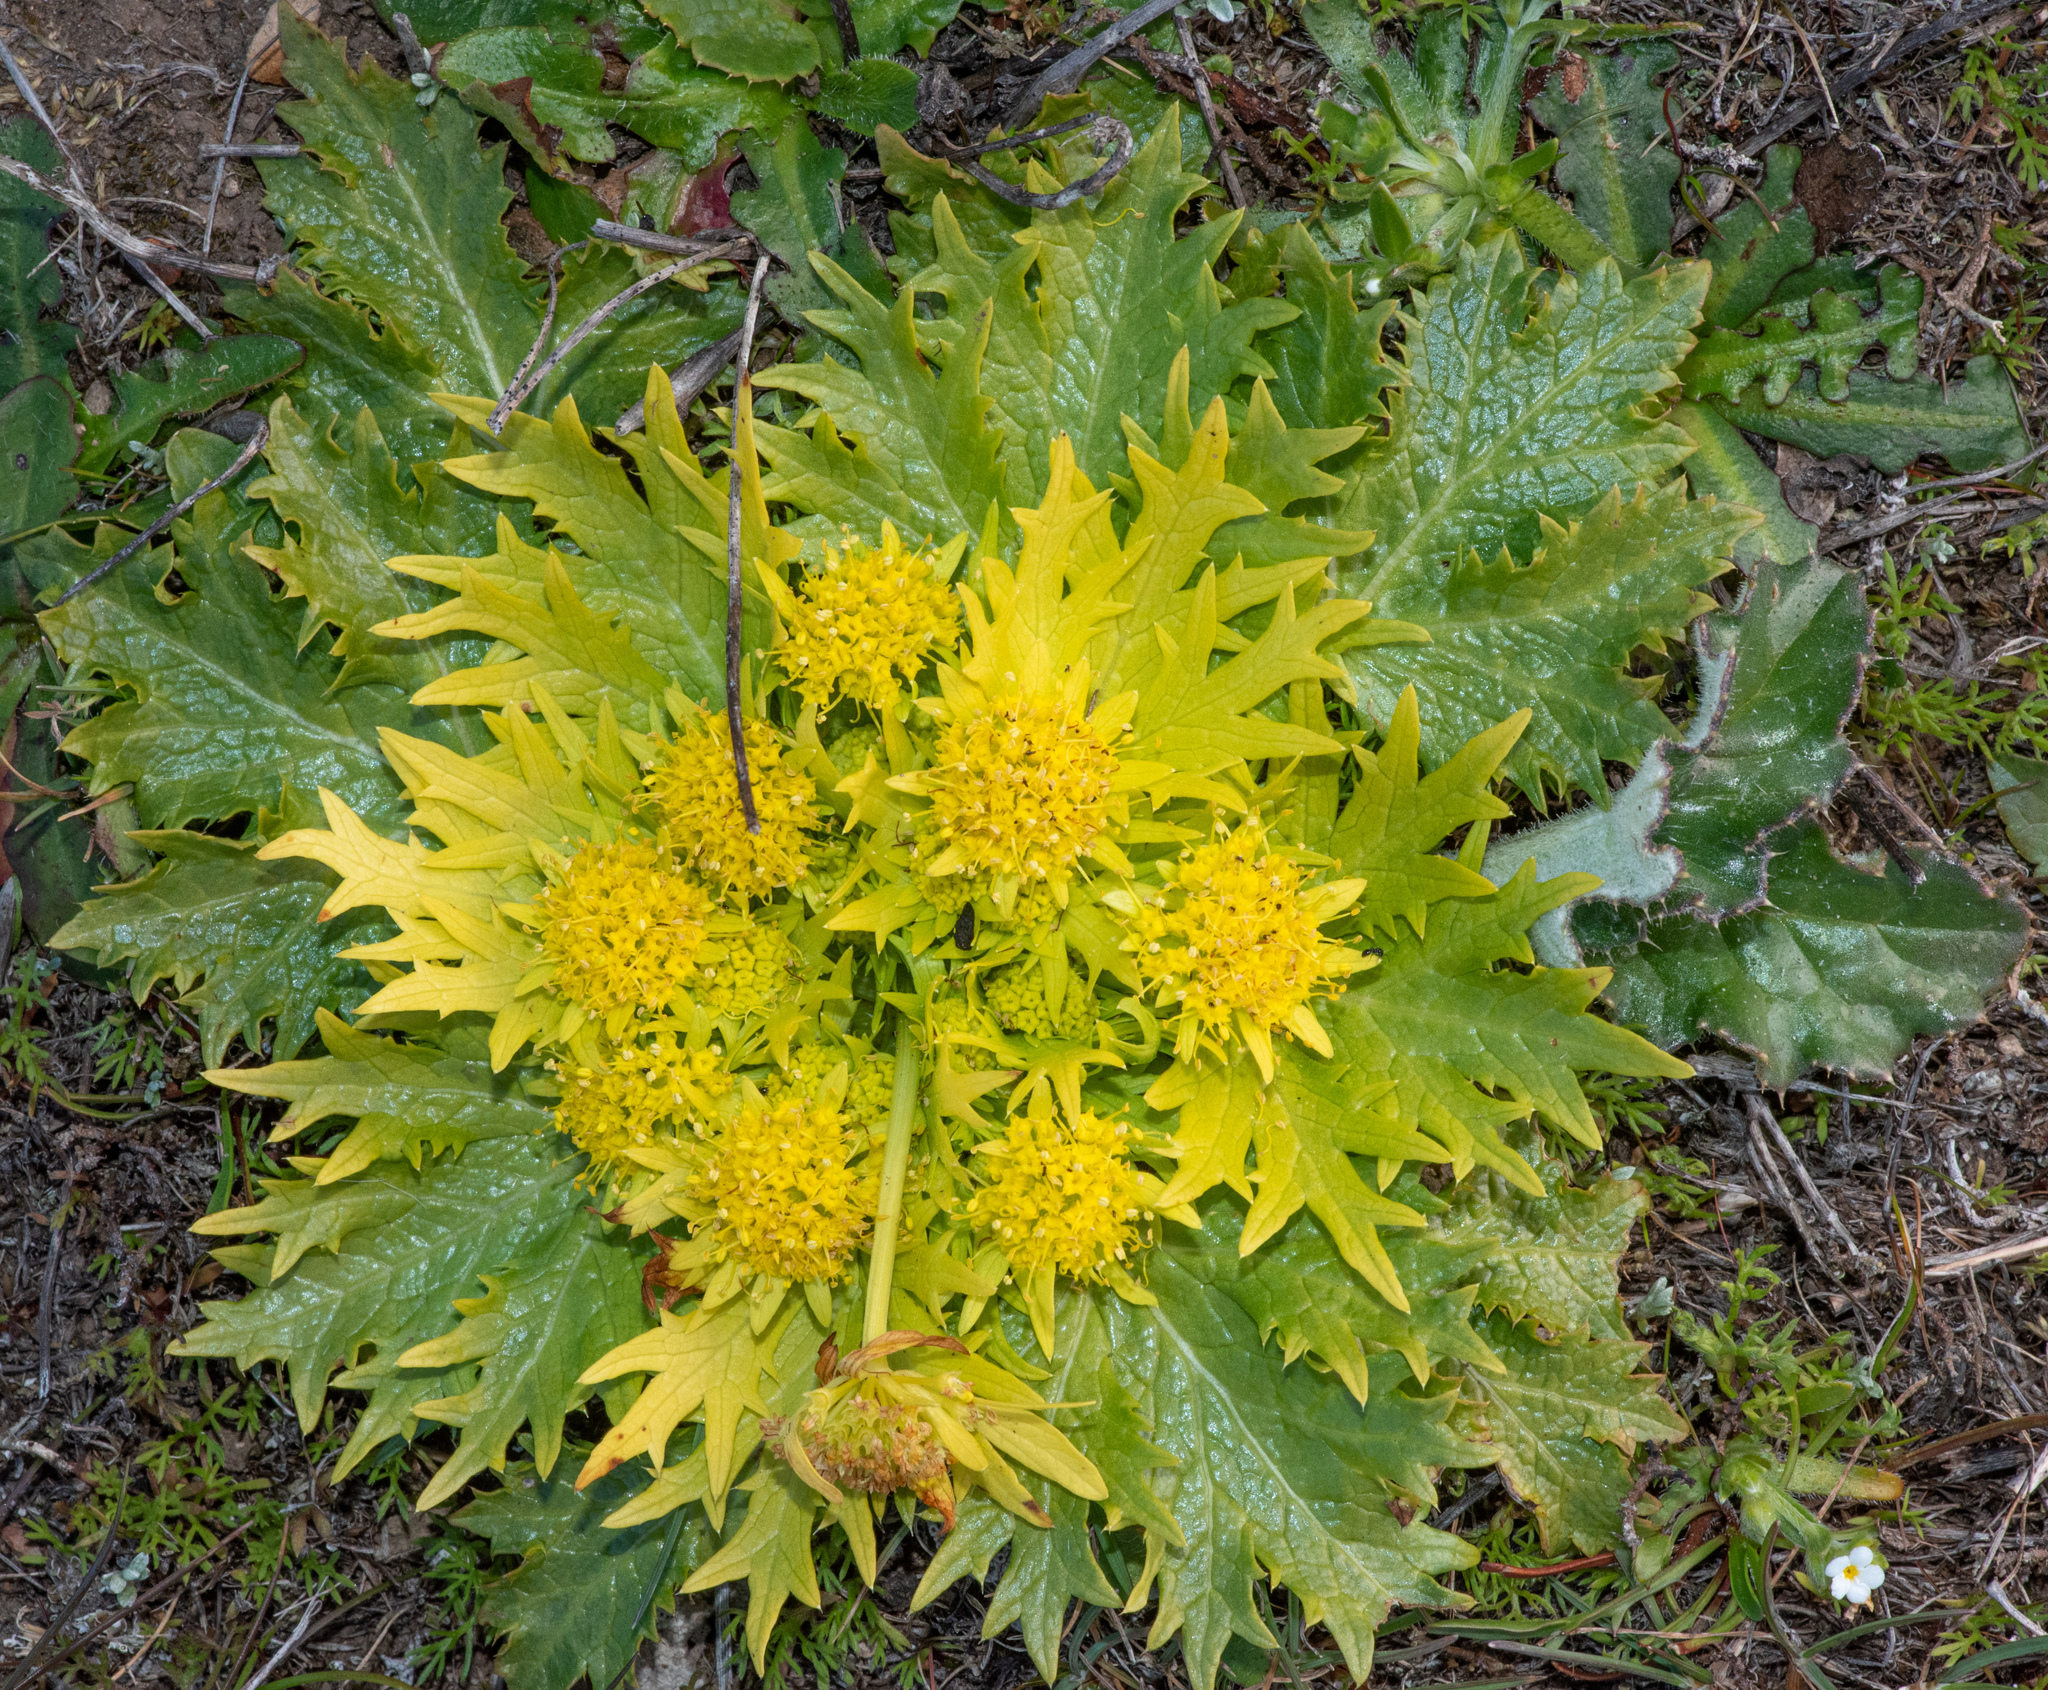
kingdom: Plantae
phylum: Tracheophyta
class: Magnoliopsida
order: Apiales
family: Apiaceae
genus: Sanicula
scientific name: Sanicula arctopoides
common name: Footsteps-of-spring
